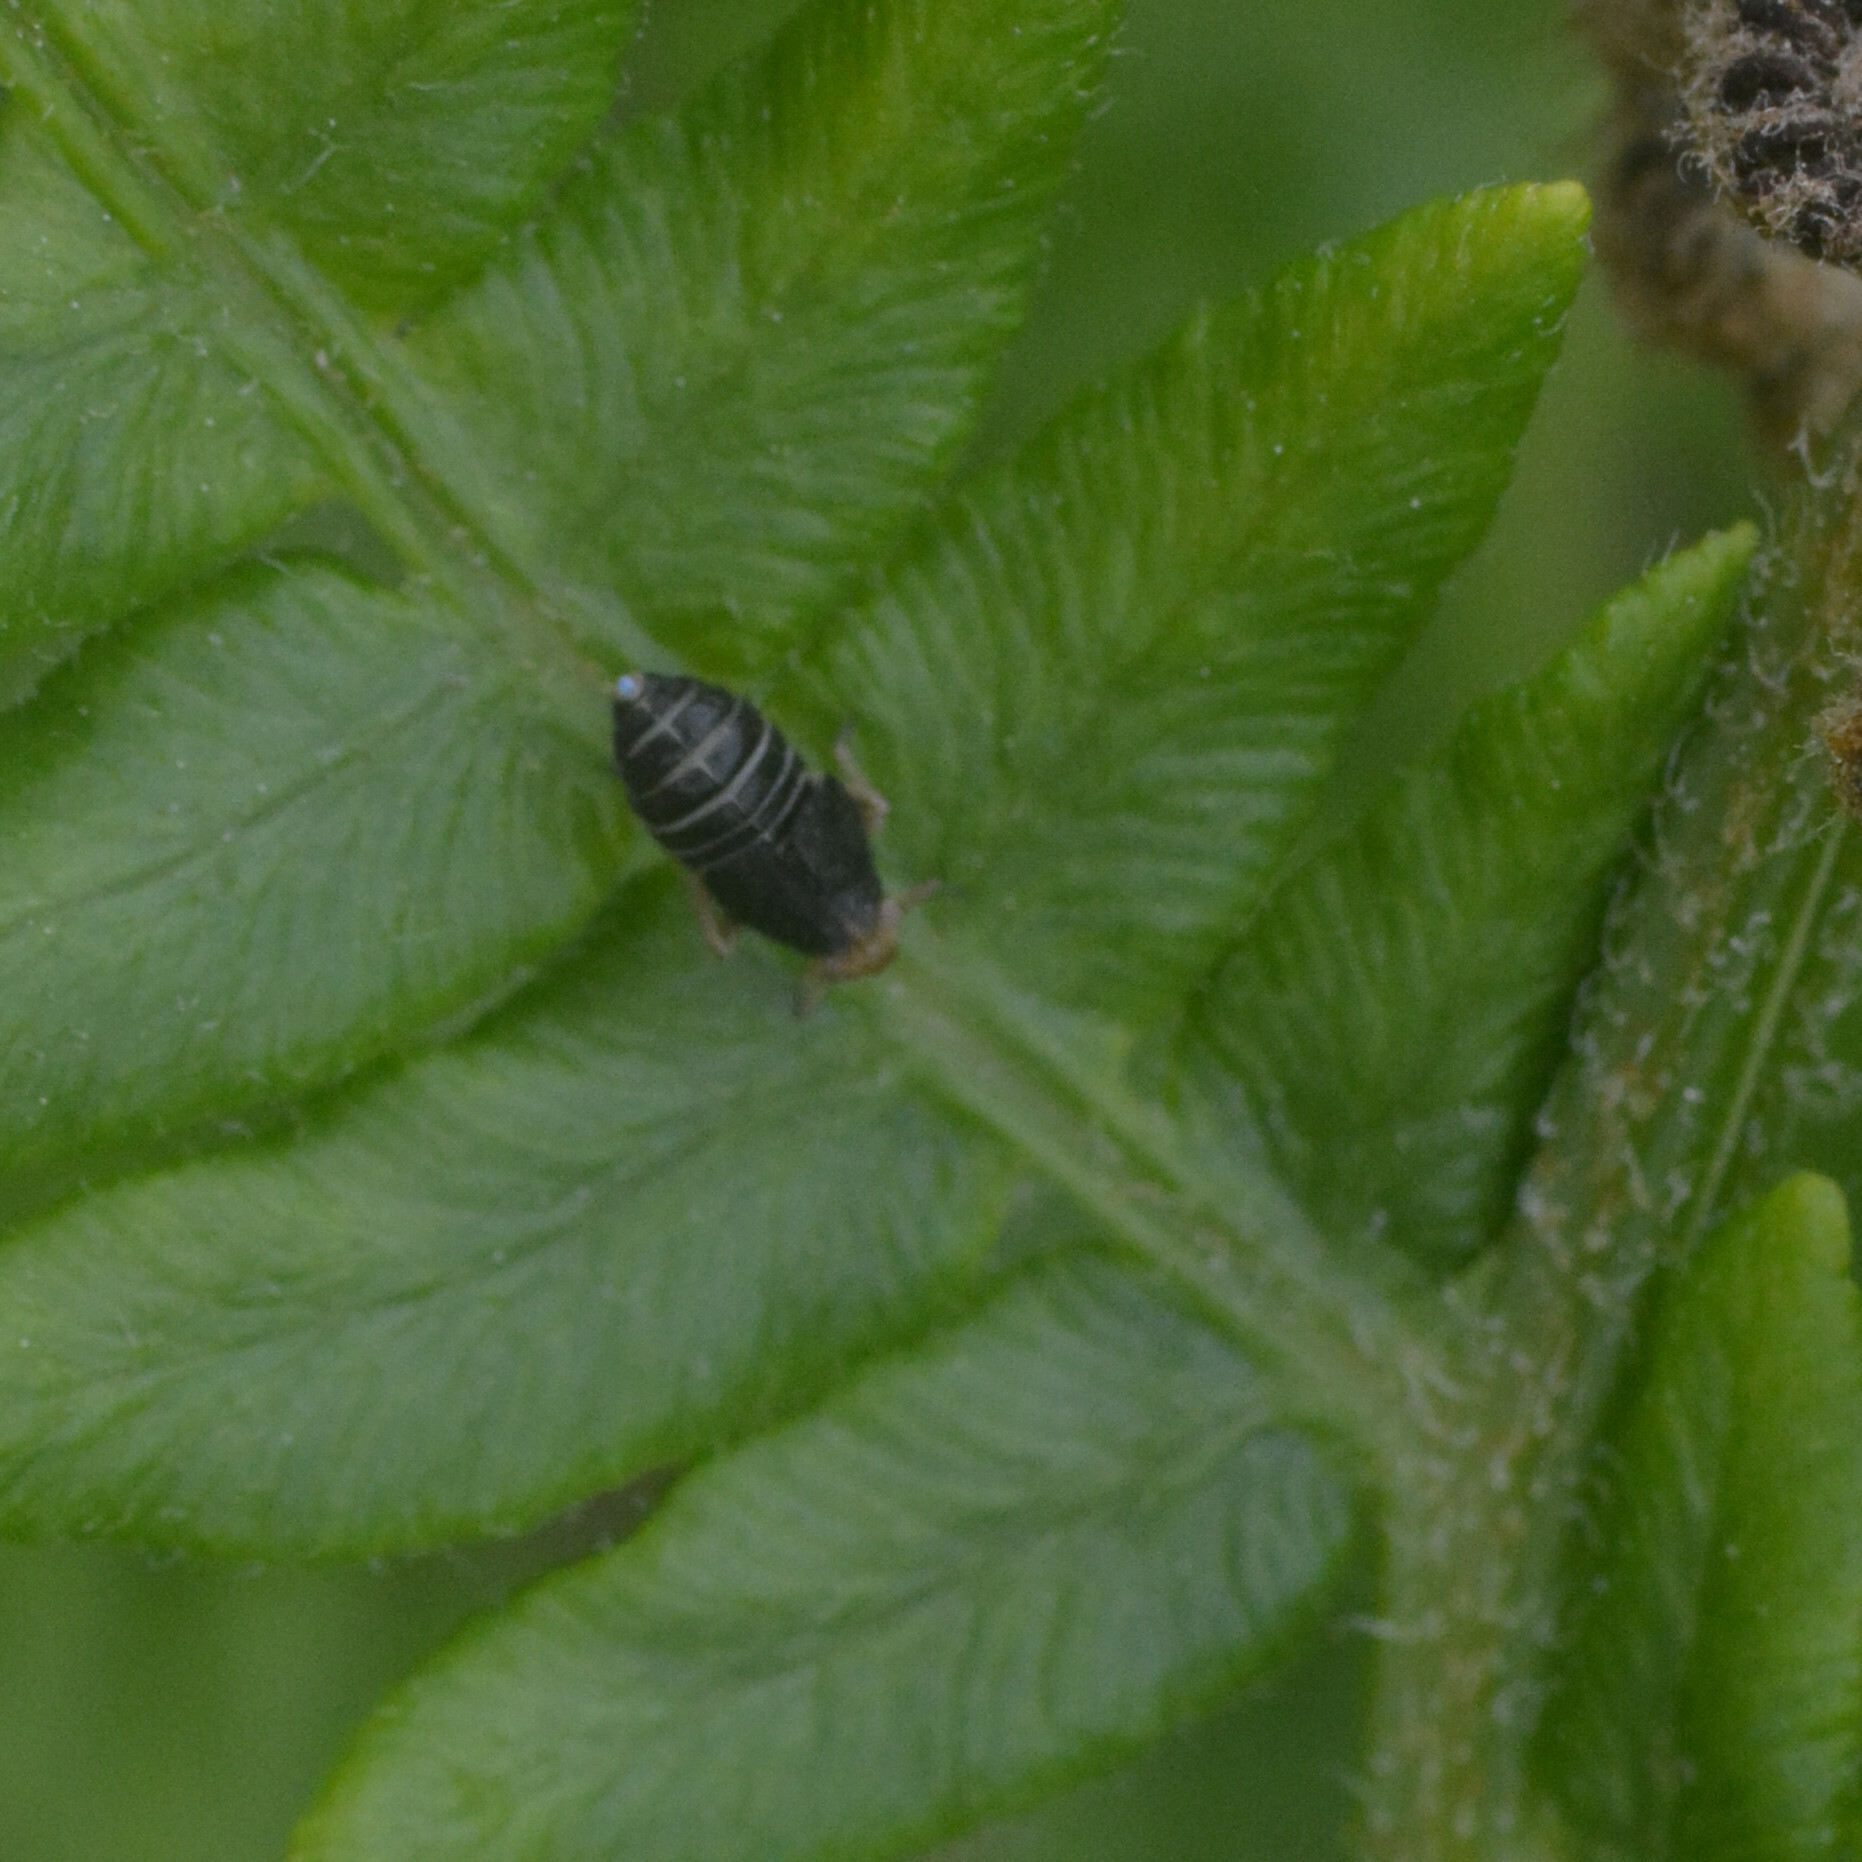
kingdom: Animalia
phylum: Arthropoda
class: Insecta
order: Hemiptera
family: Delphacidae
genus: Ditropis
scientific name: Ditropis pteridis
